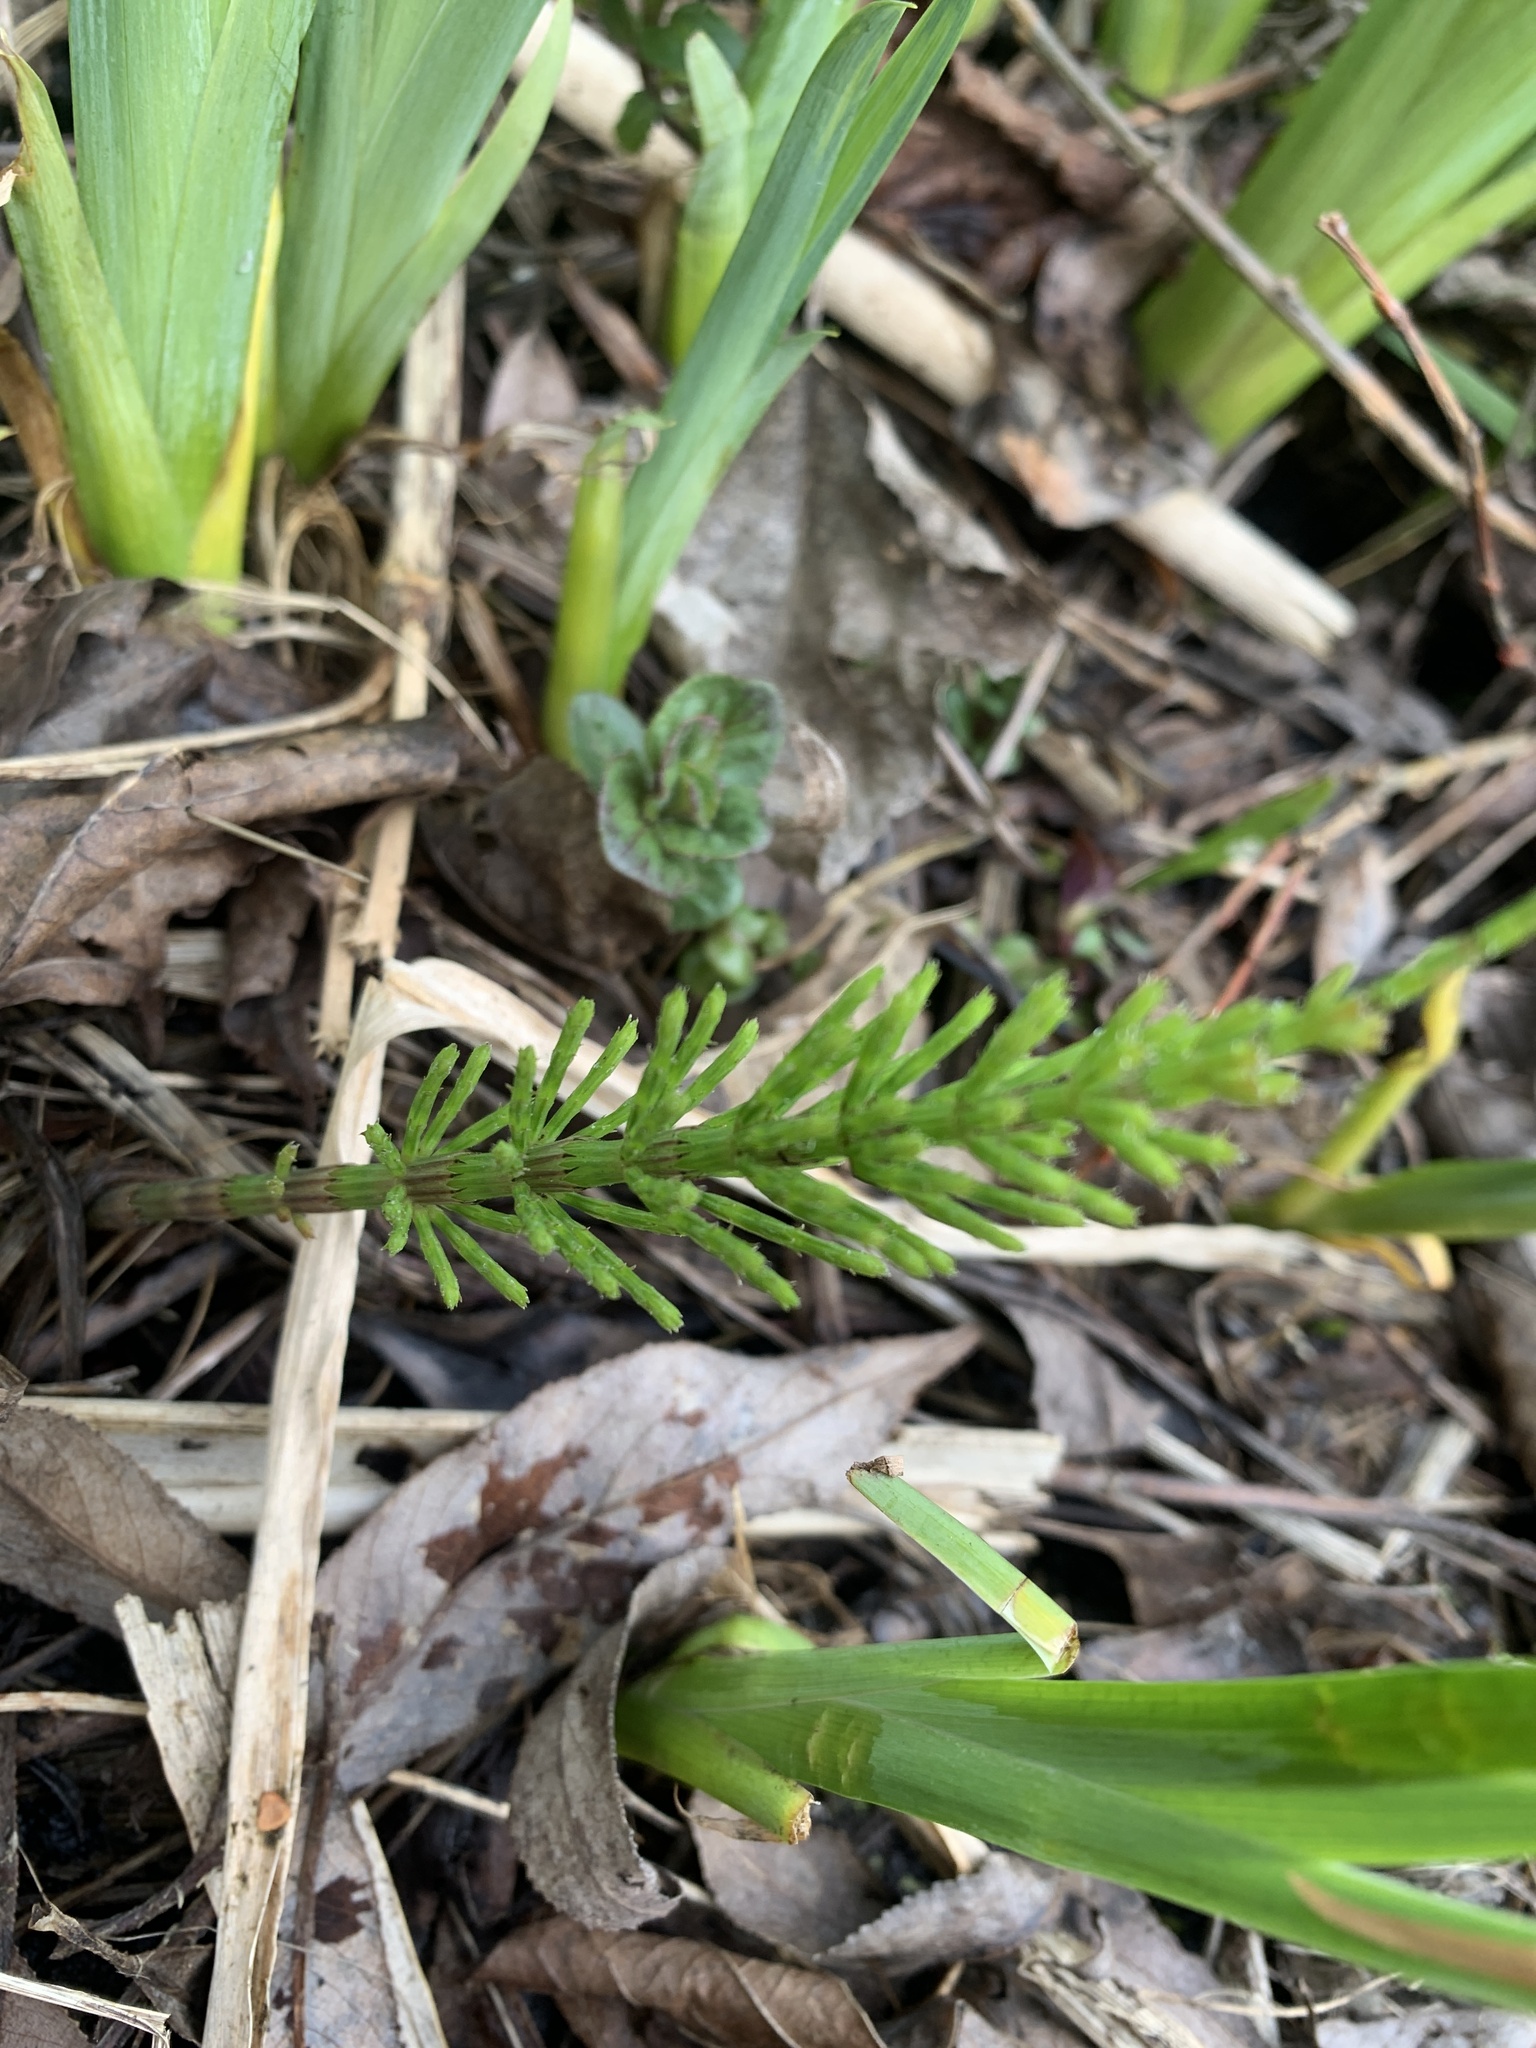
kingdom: Plantae
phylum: Tracheophyta
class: Polypodiopsida
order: Equisetales
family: Equisetaceae
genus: Equisetum
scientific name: Equisetum arvense
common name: Field horsetail
